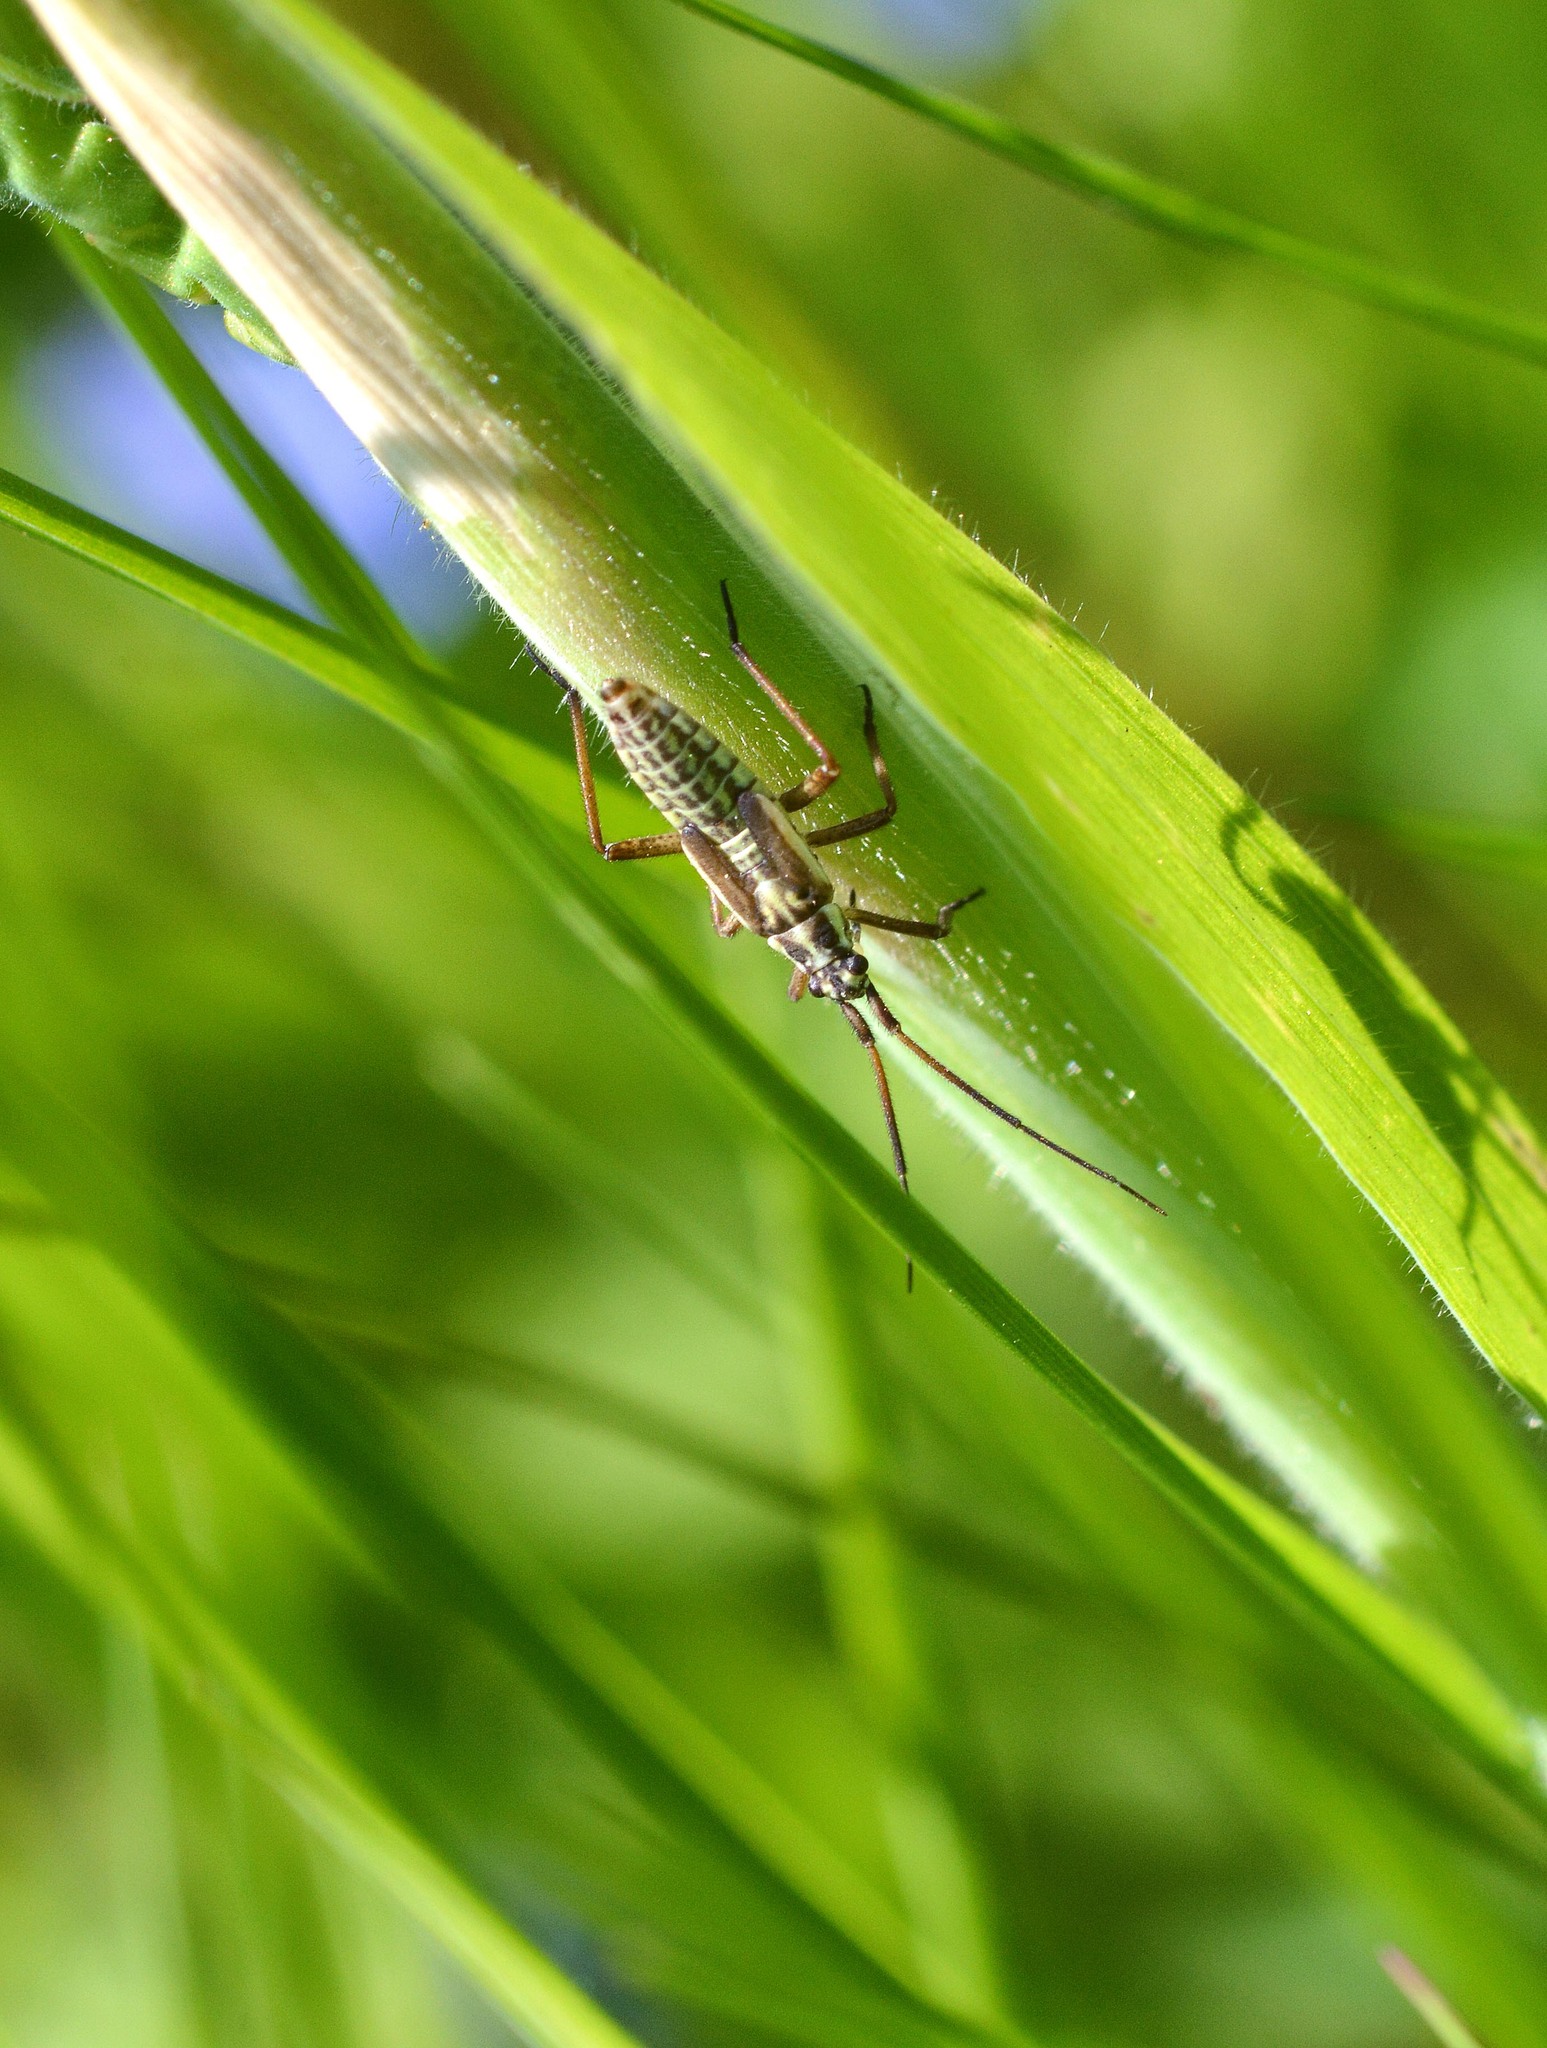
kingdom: Animalia
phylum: Arthropoda
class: Insecta
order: Hemiptera
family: Miridae
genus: Leptopterna
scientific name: Leptopterna dolabrata
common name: Meadow plant bug
